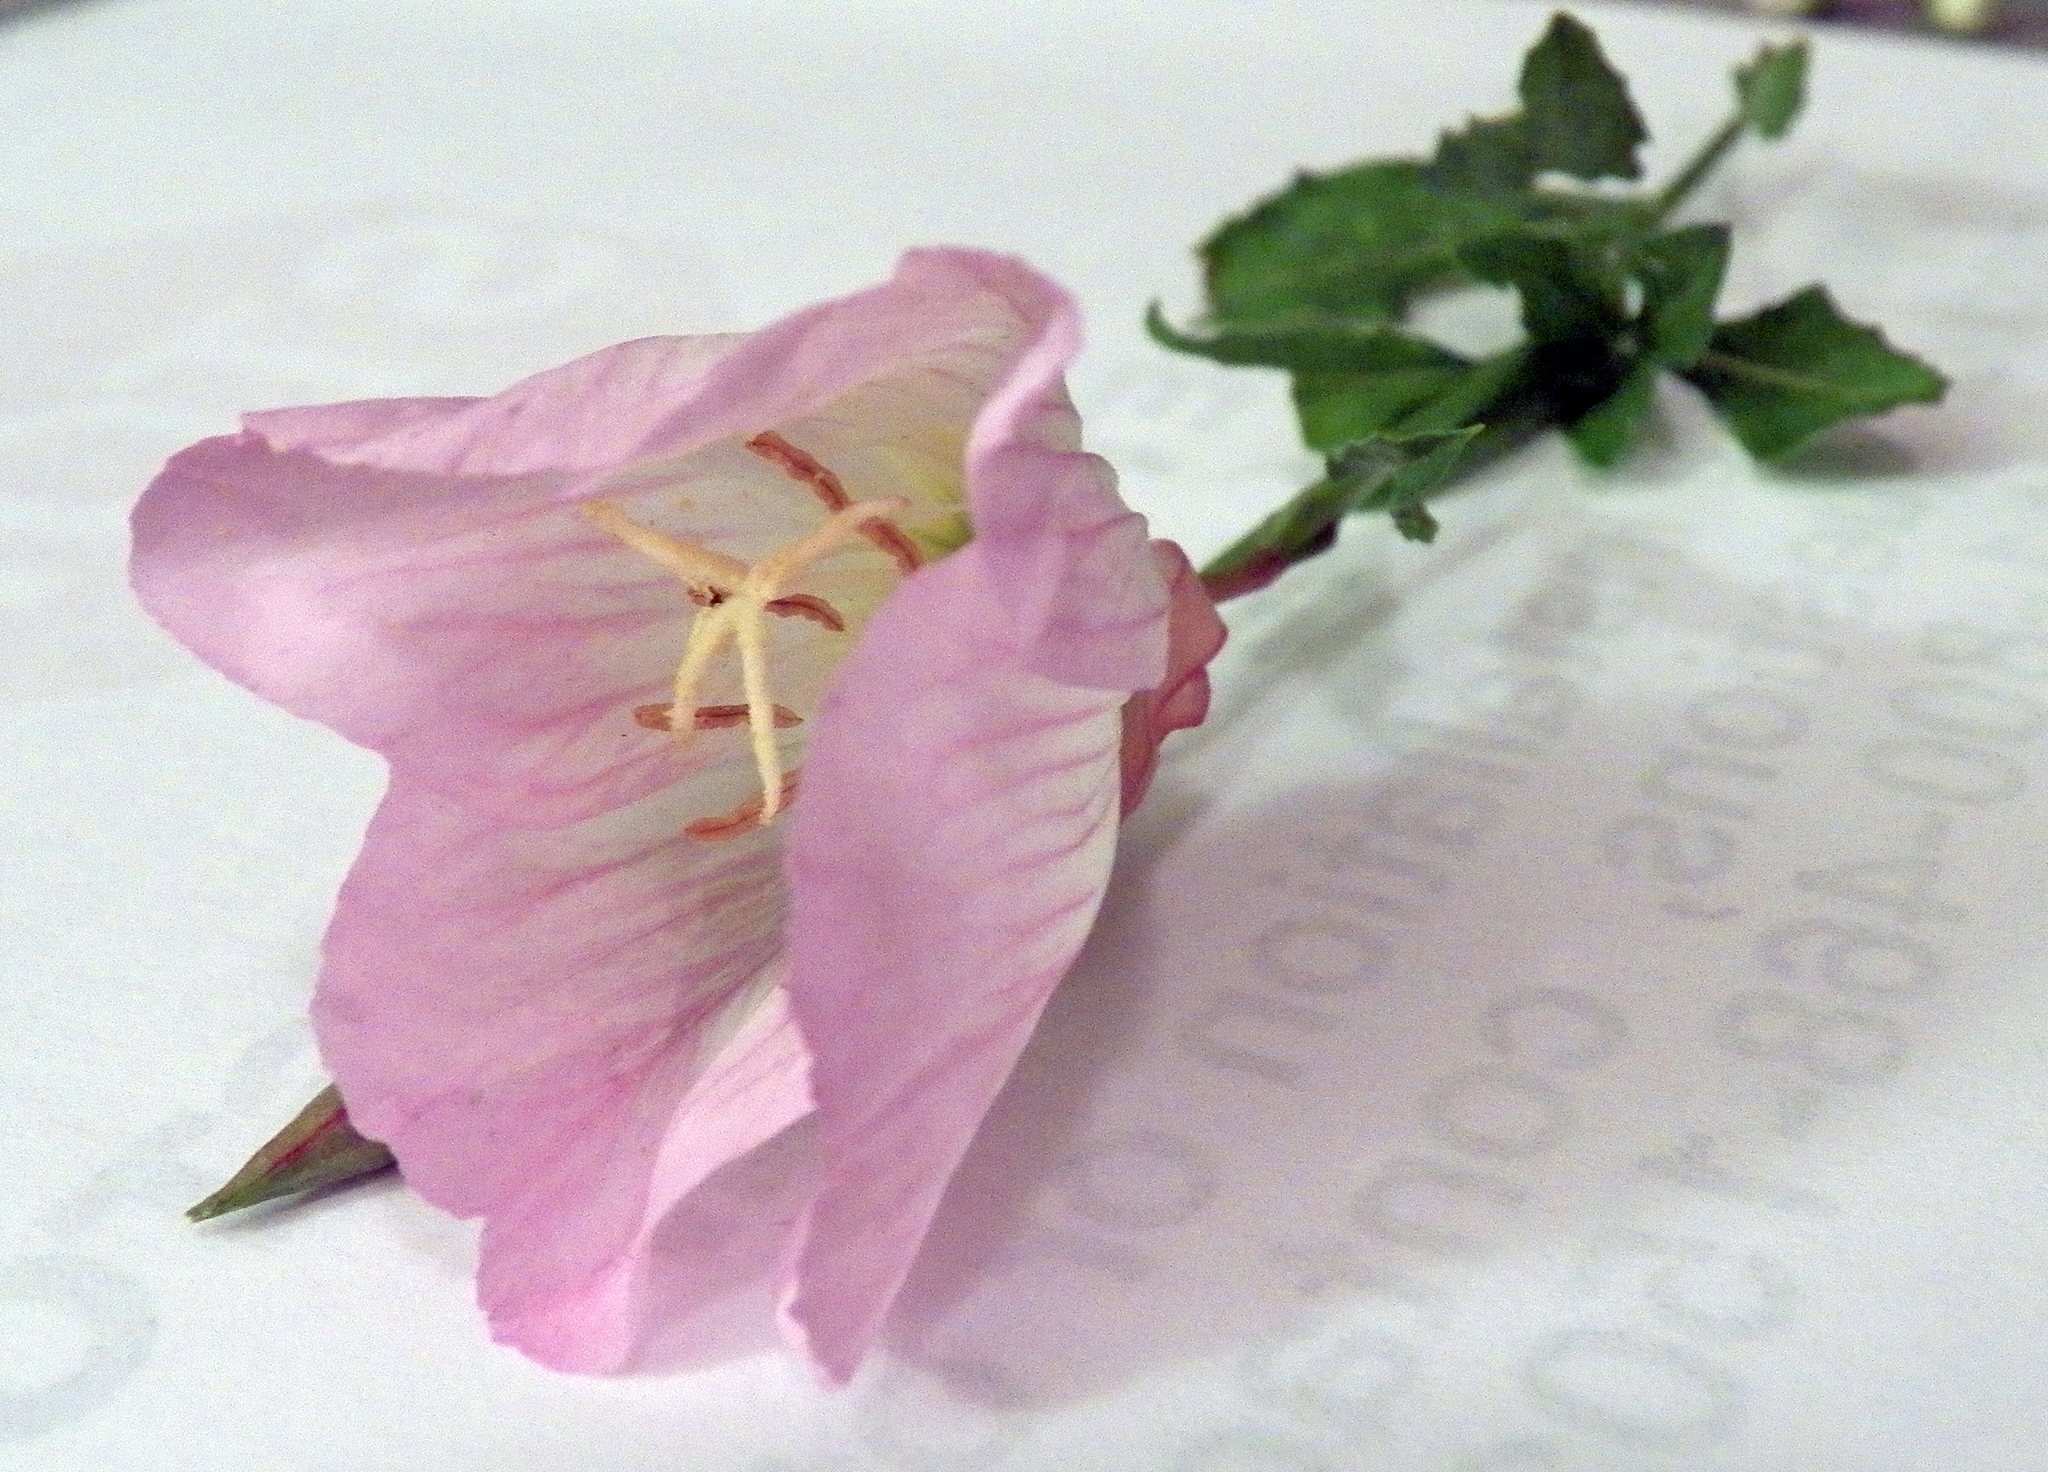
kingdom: Plantae
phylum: Tracheophyta
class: Magnoliopsida
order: Myrtales
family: Onagraceae
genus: Oenothera
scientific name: Oenothera speciosa
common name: White evening-primrose
